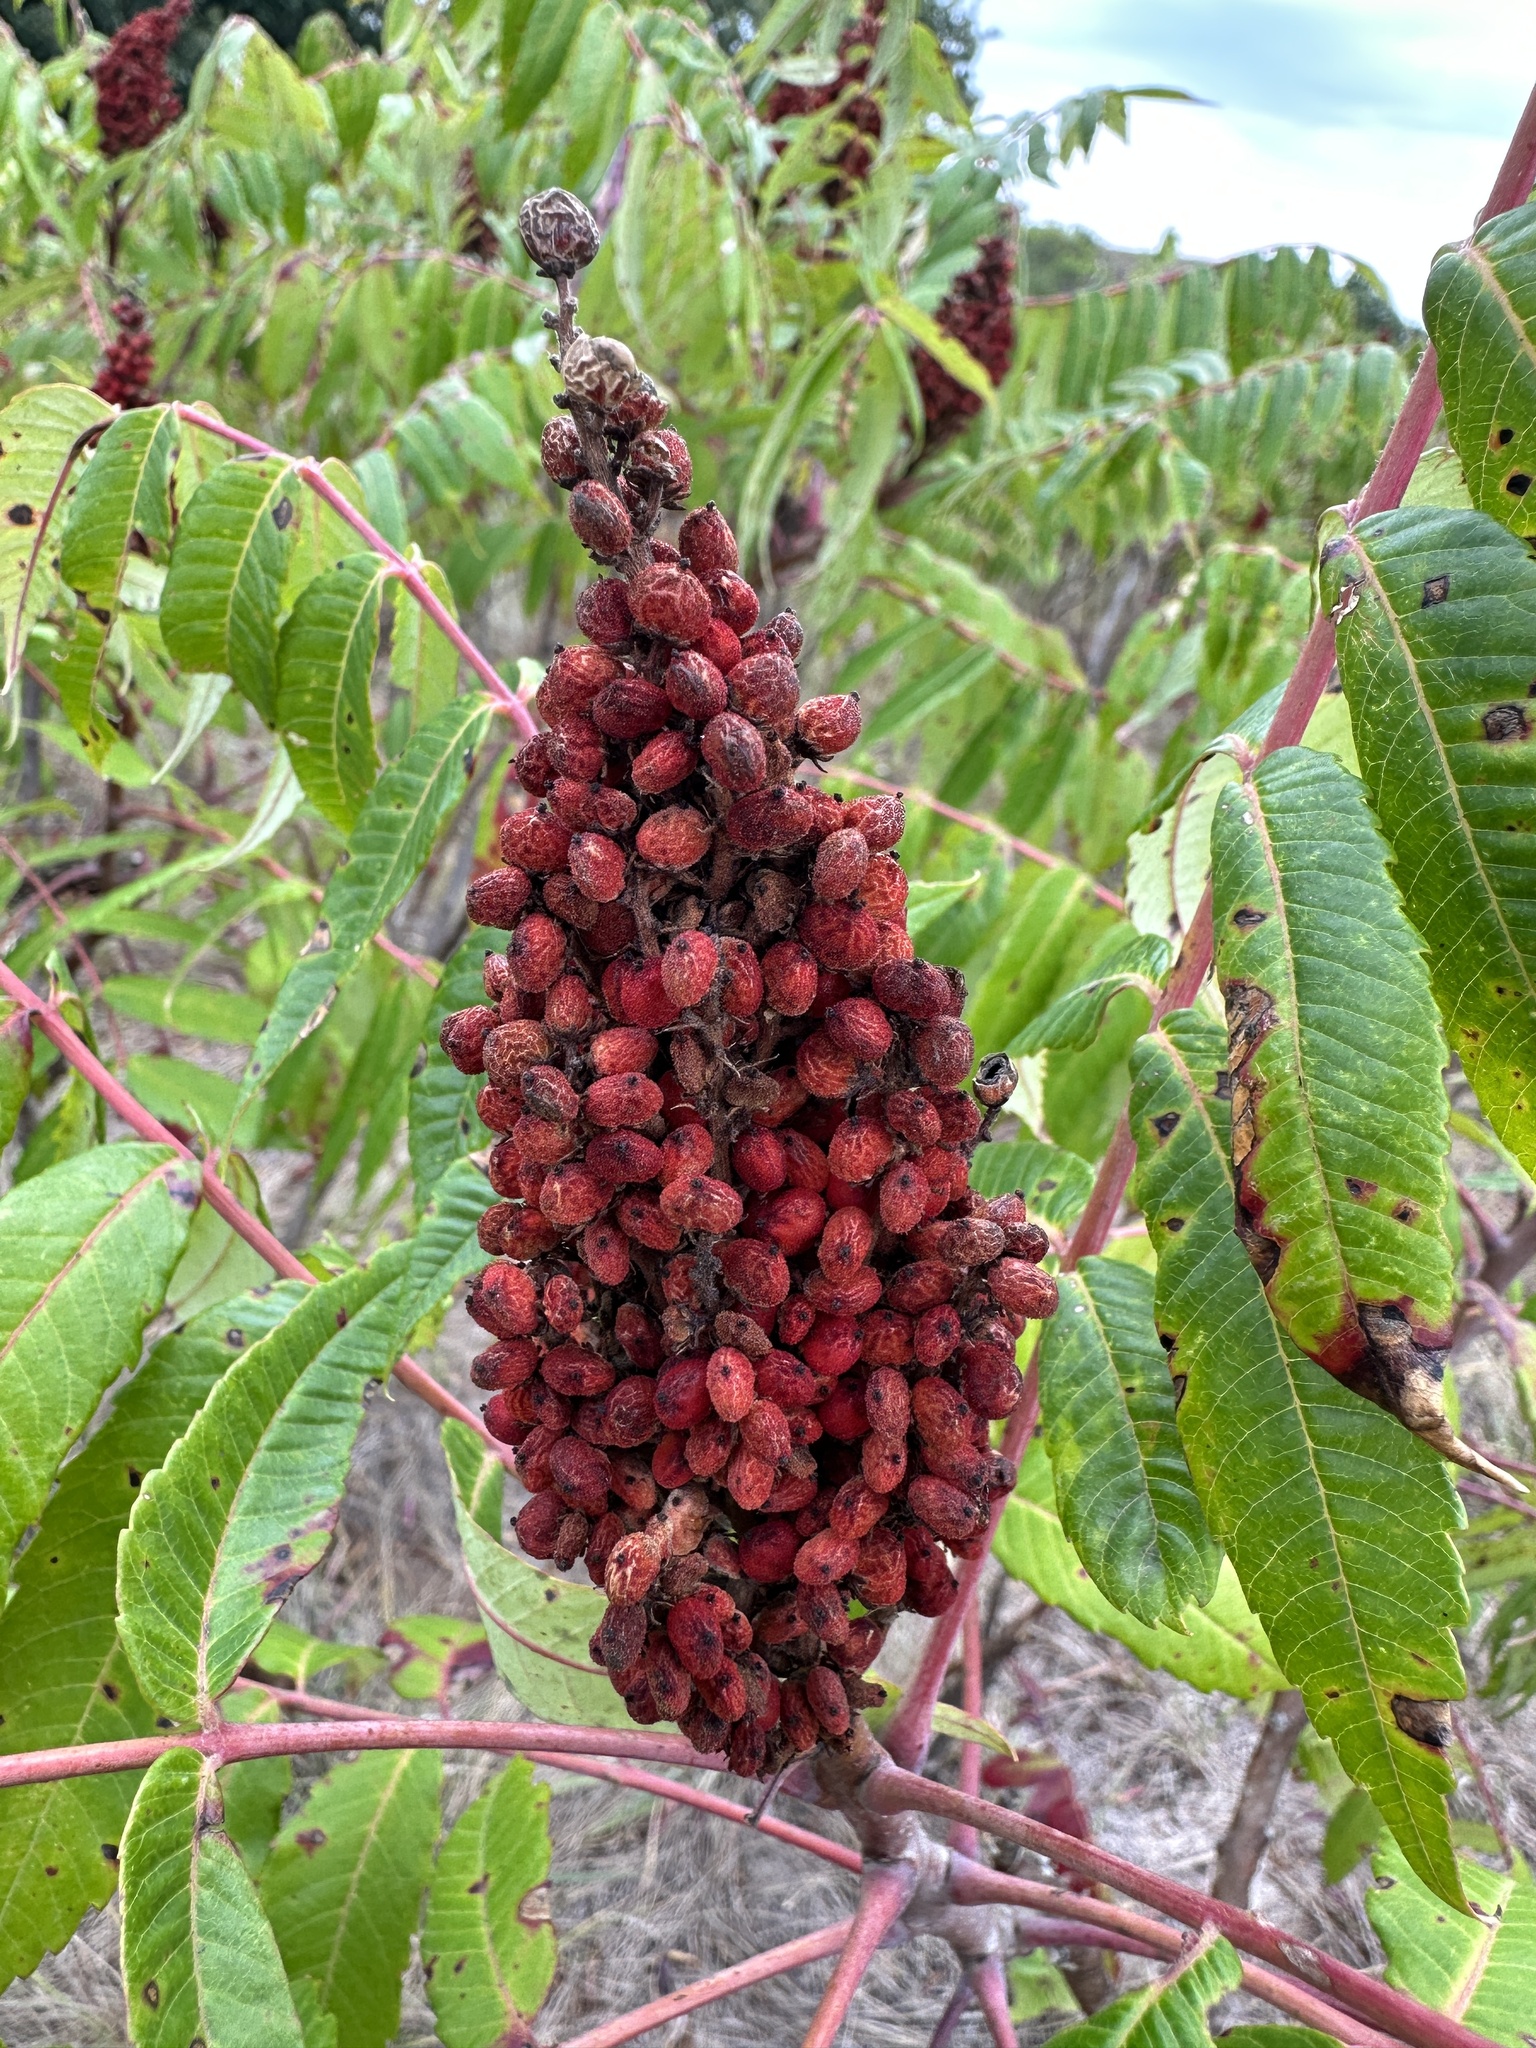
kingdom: Plantae
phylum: Tracheophyta
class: Magnoliopsida
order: Sapindales
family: Anacardiaceae
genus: Rhus
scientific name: Rhus glabra
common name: Scarlet sumac
